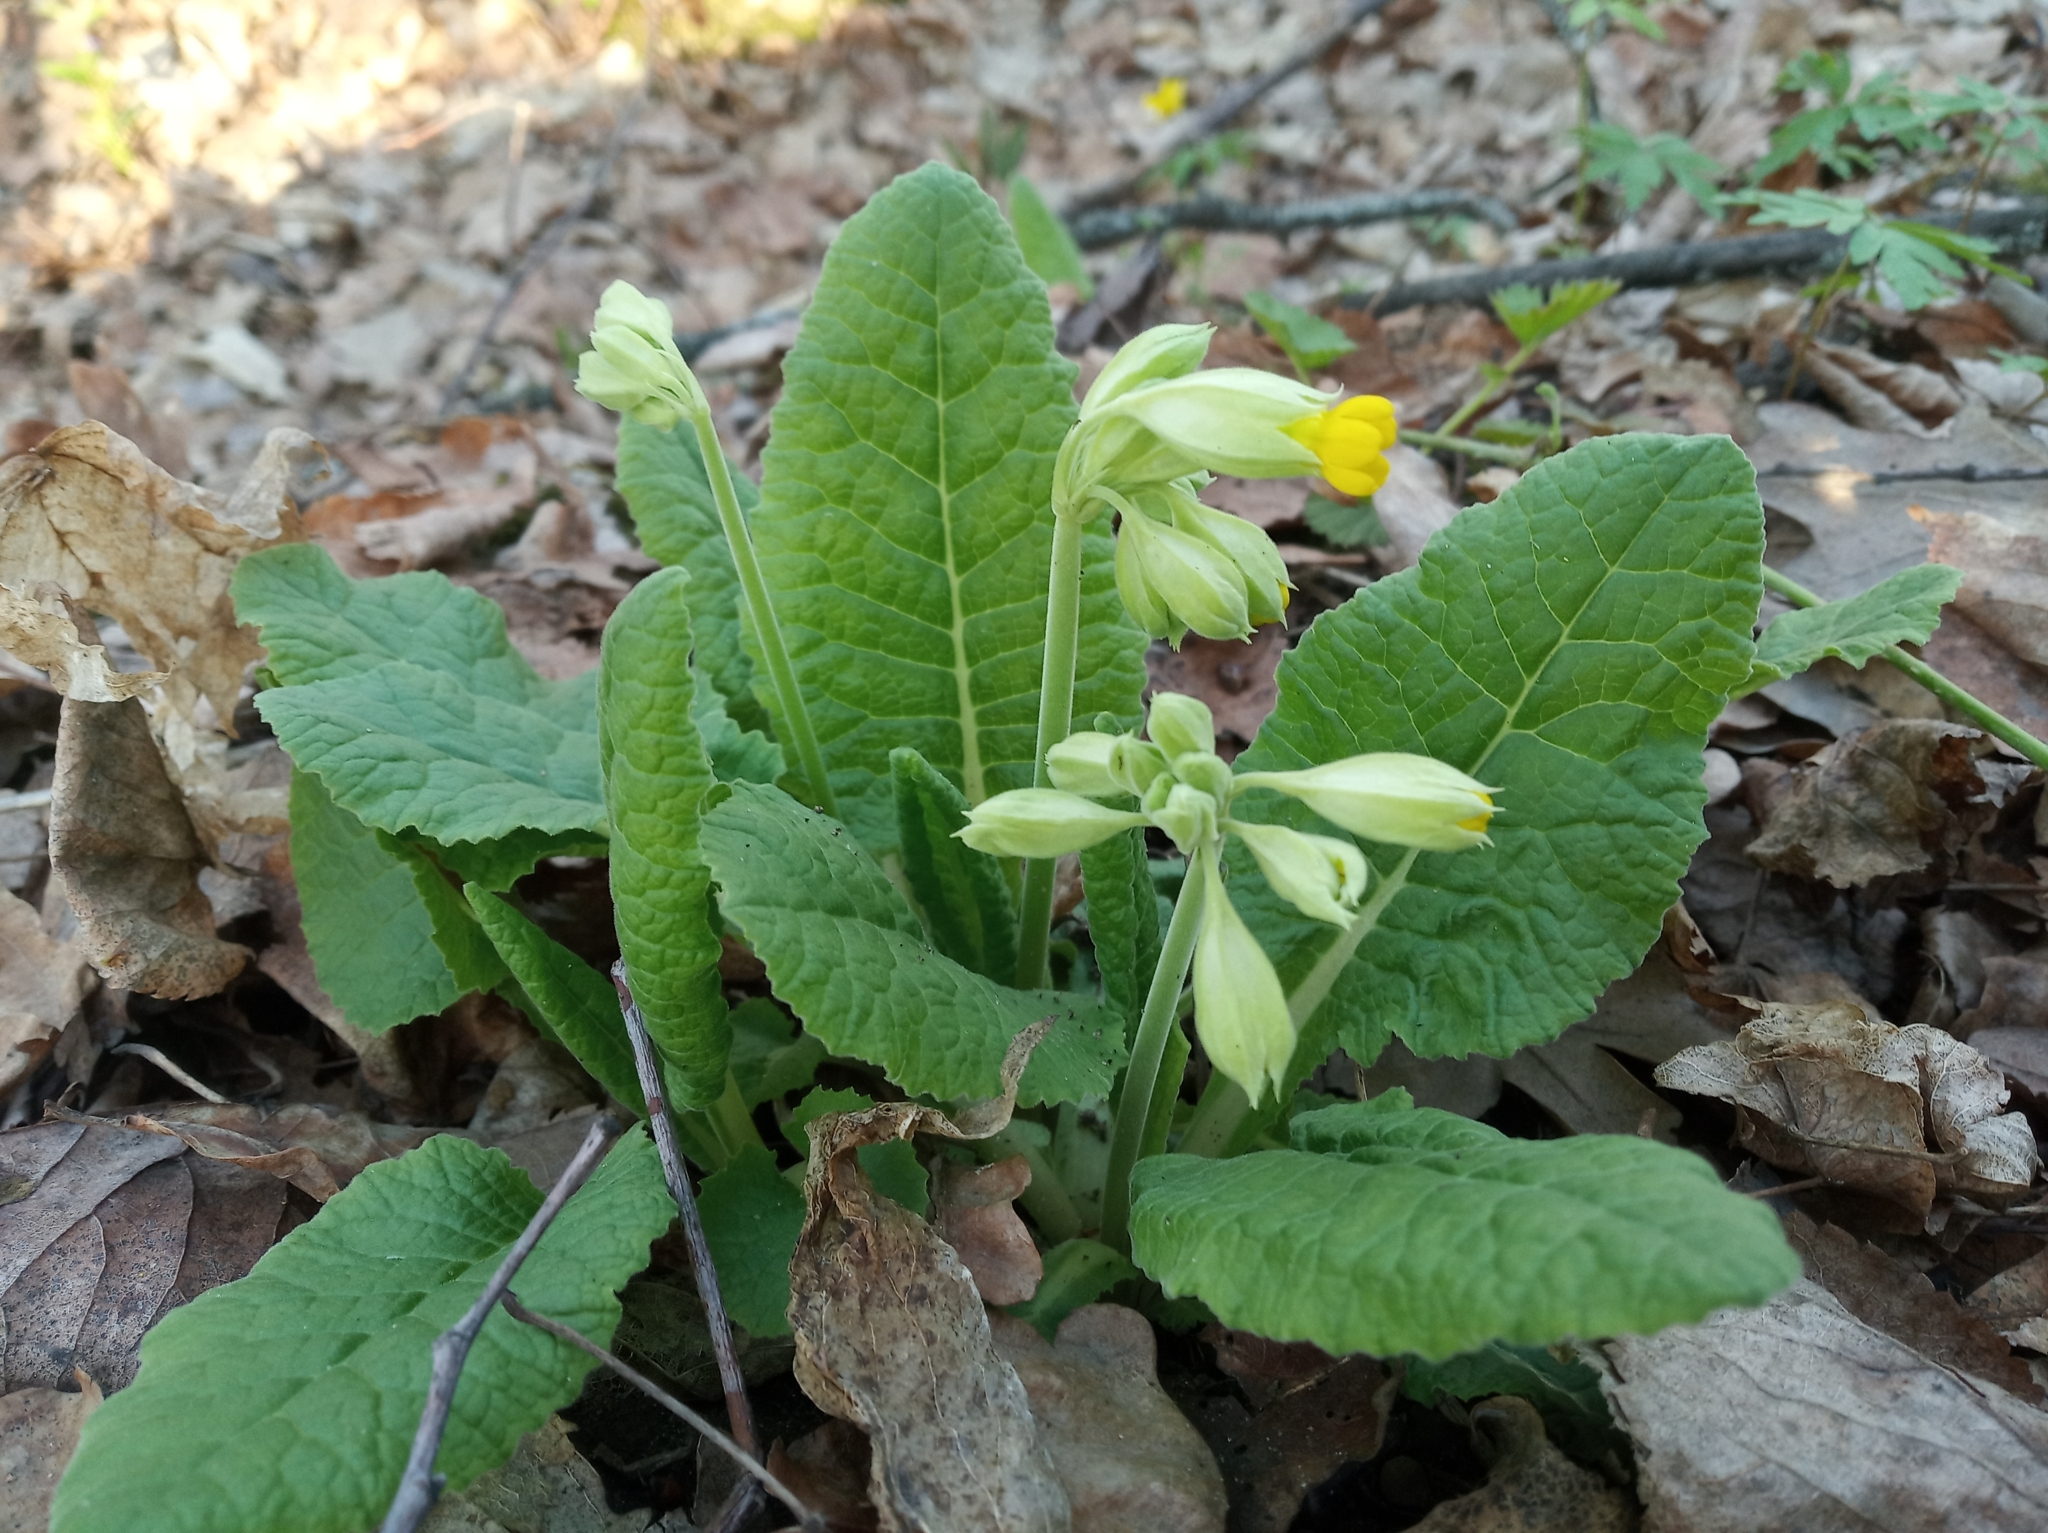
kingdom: Plantae
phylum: Tracheophyta
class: Magnoliopsida
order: Ericales
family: Primulaceae
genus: Primula
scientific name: Primula veris
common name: Cowslip
